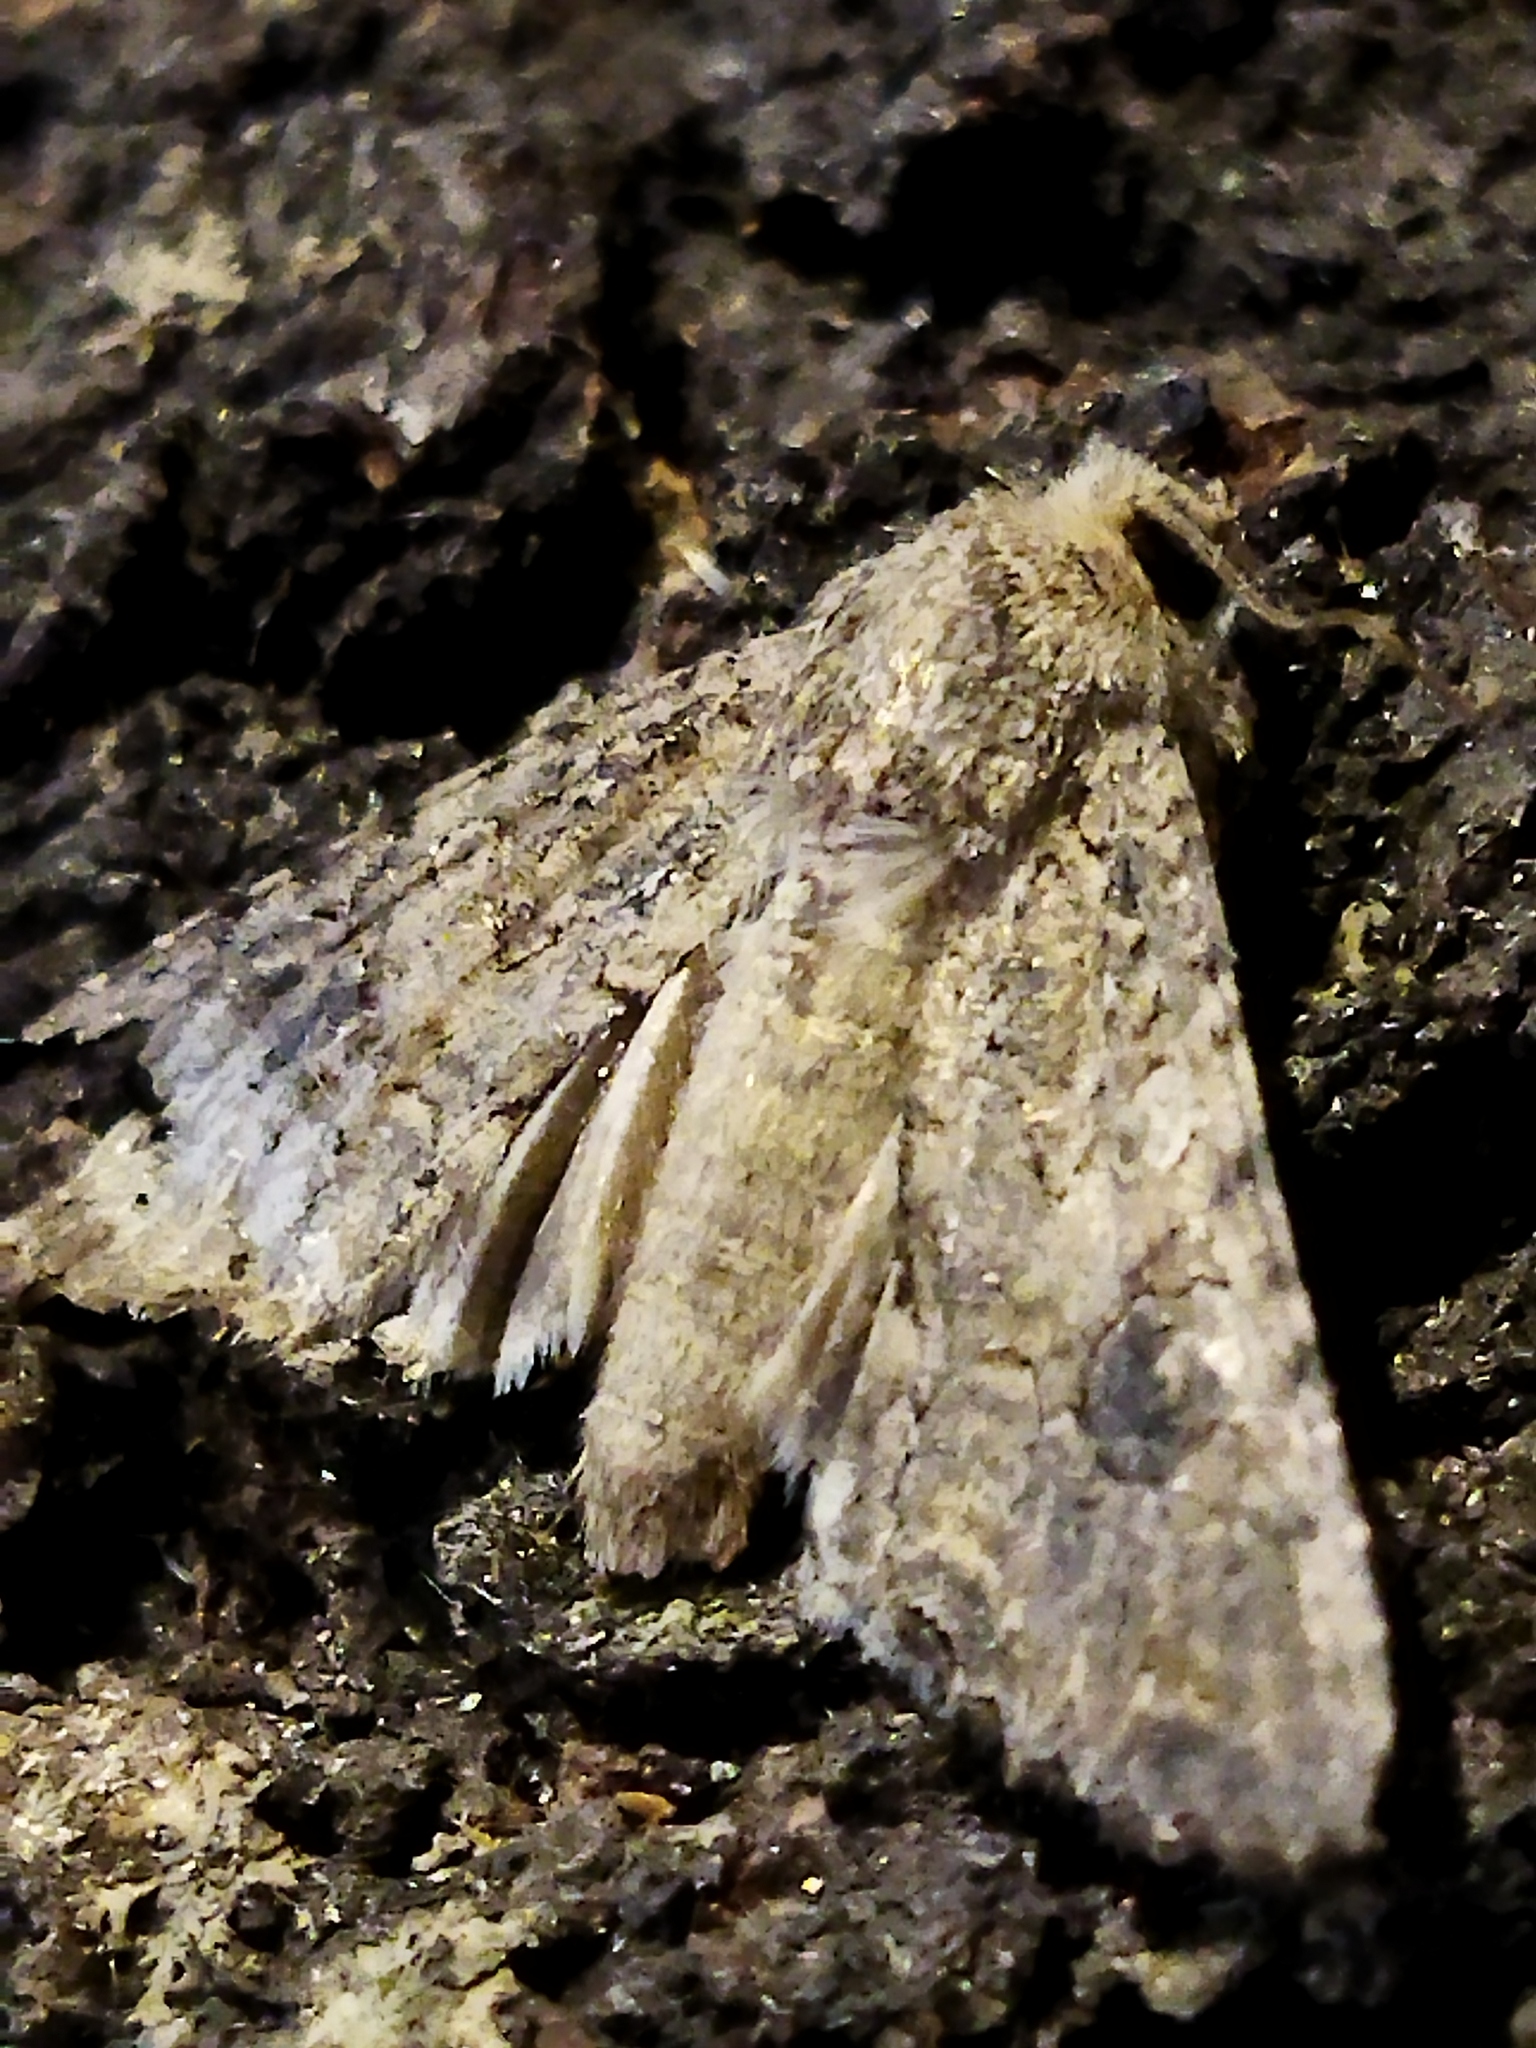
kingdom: Animalia
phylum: Arthropoda
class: Insecta
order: Lepidoptera
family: Noctuidae
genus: Anarta
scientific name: Anarta trifolii
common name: Clover cutworm moth
